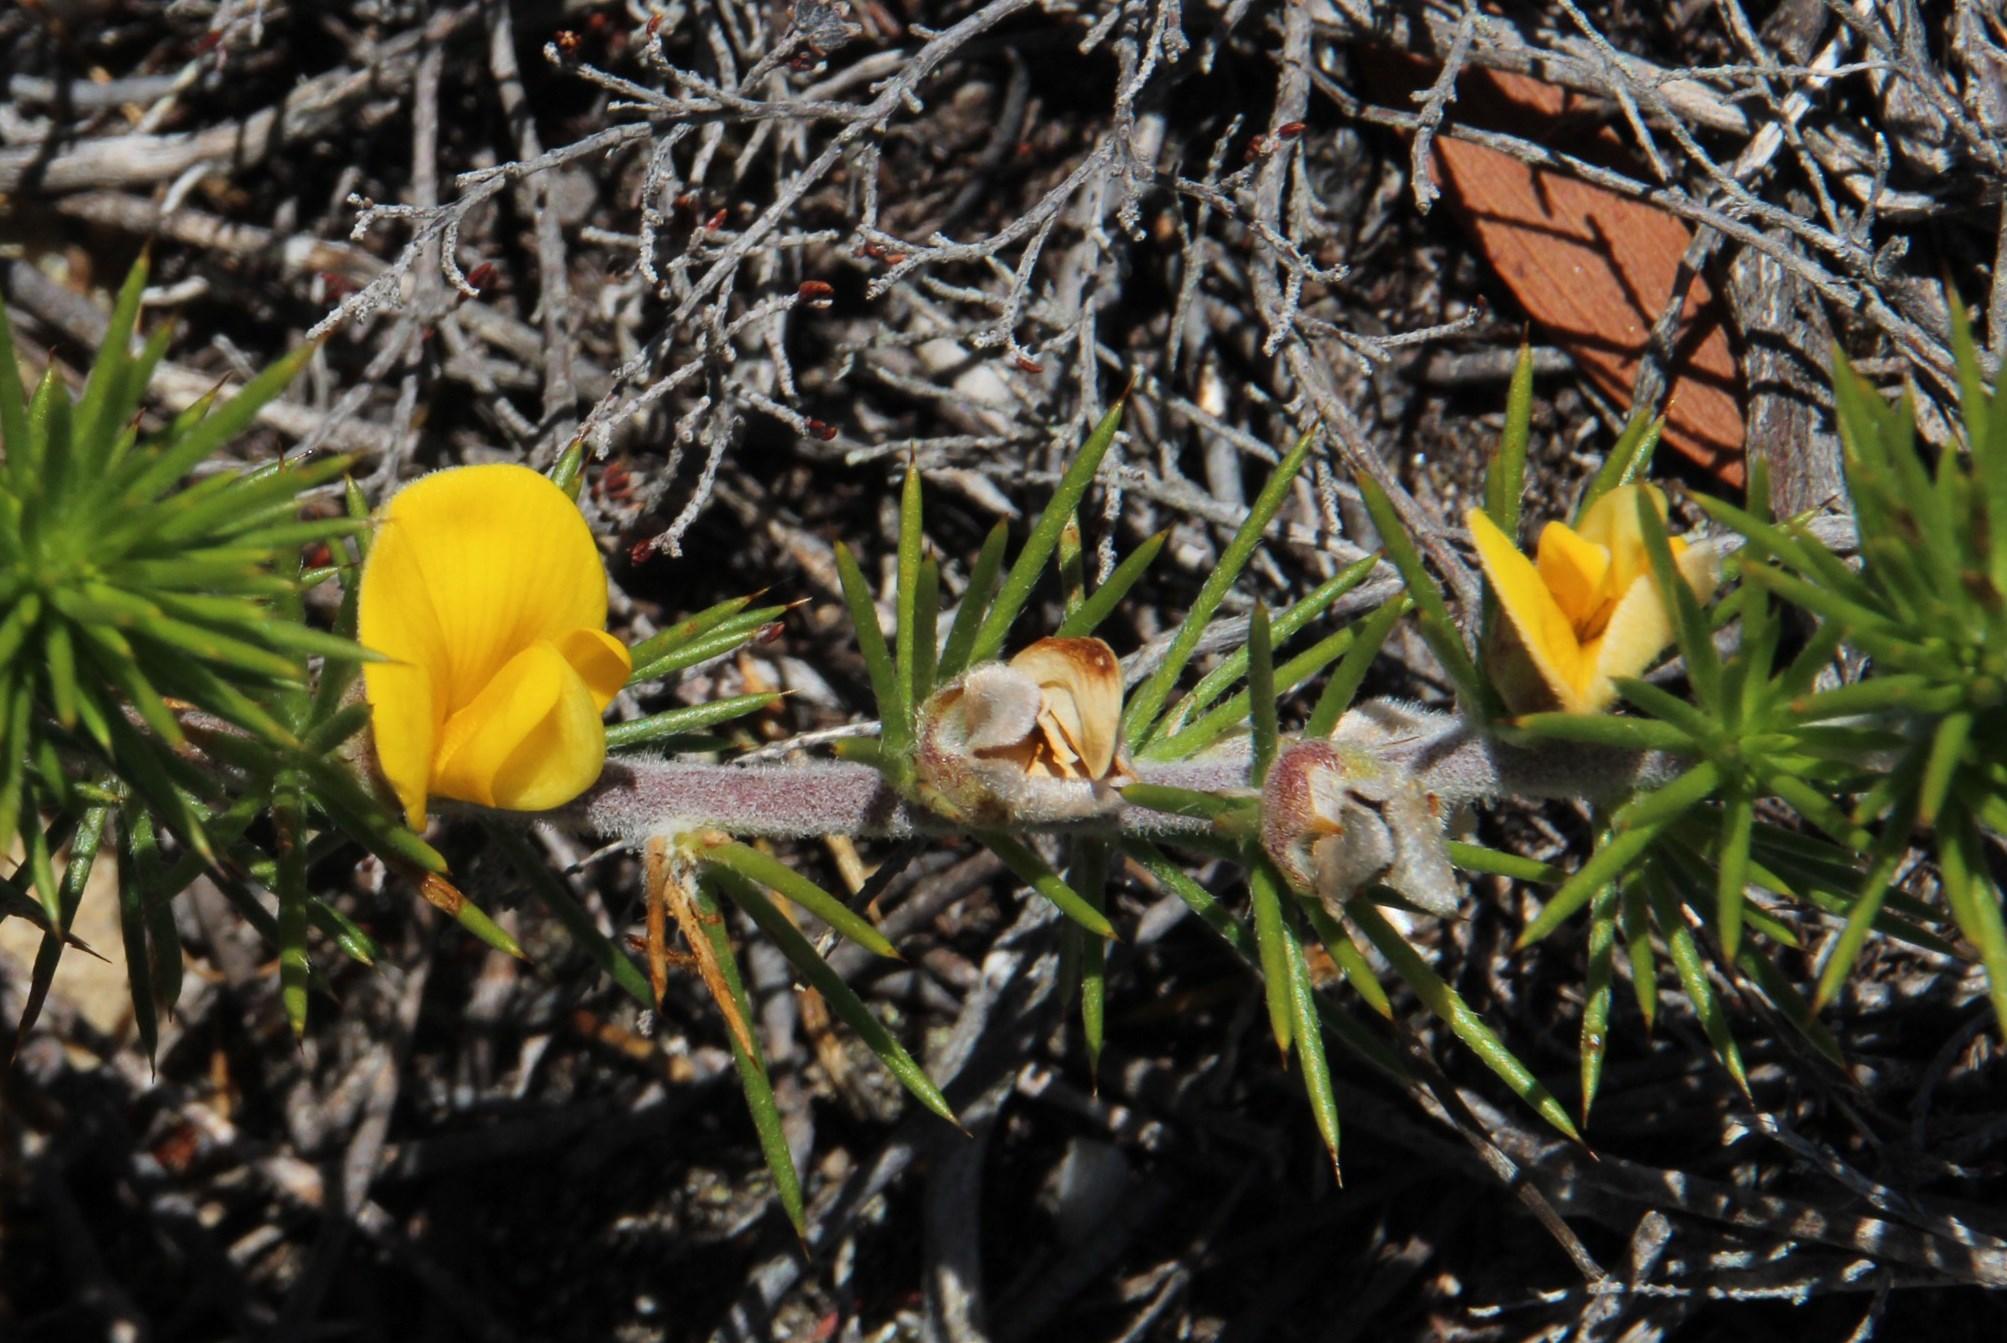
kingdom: Plantae
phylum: Tracheophyta
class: Magnoliopsida
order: Fabales
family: Fabaceae
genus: Aspalathus
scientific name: Aspalathus hirta
